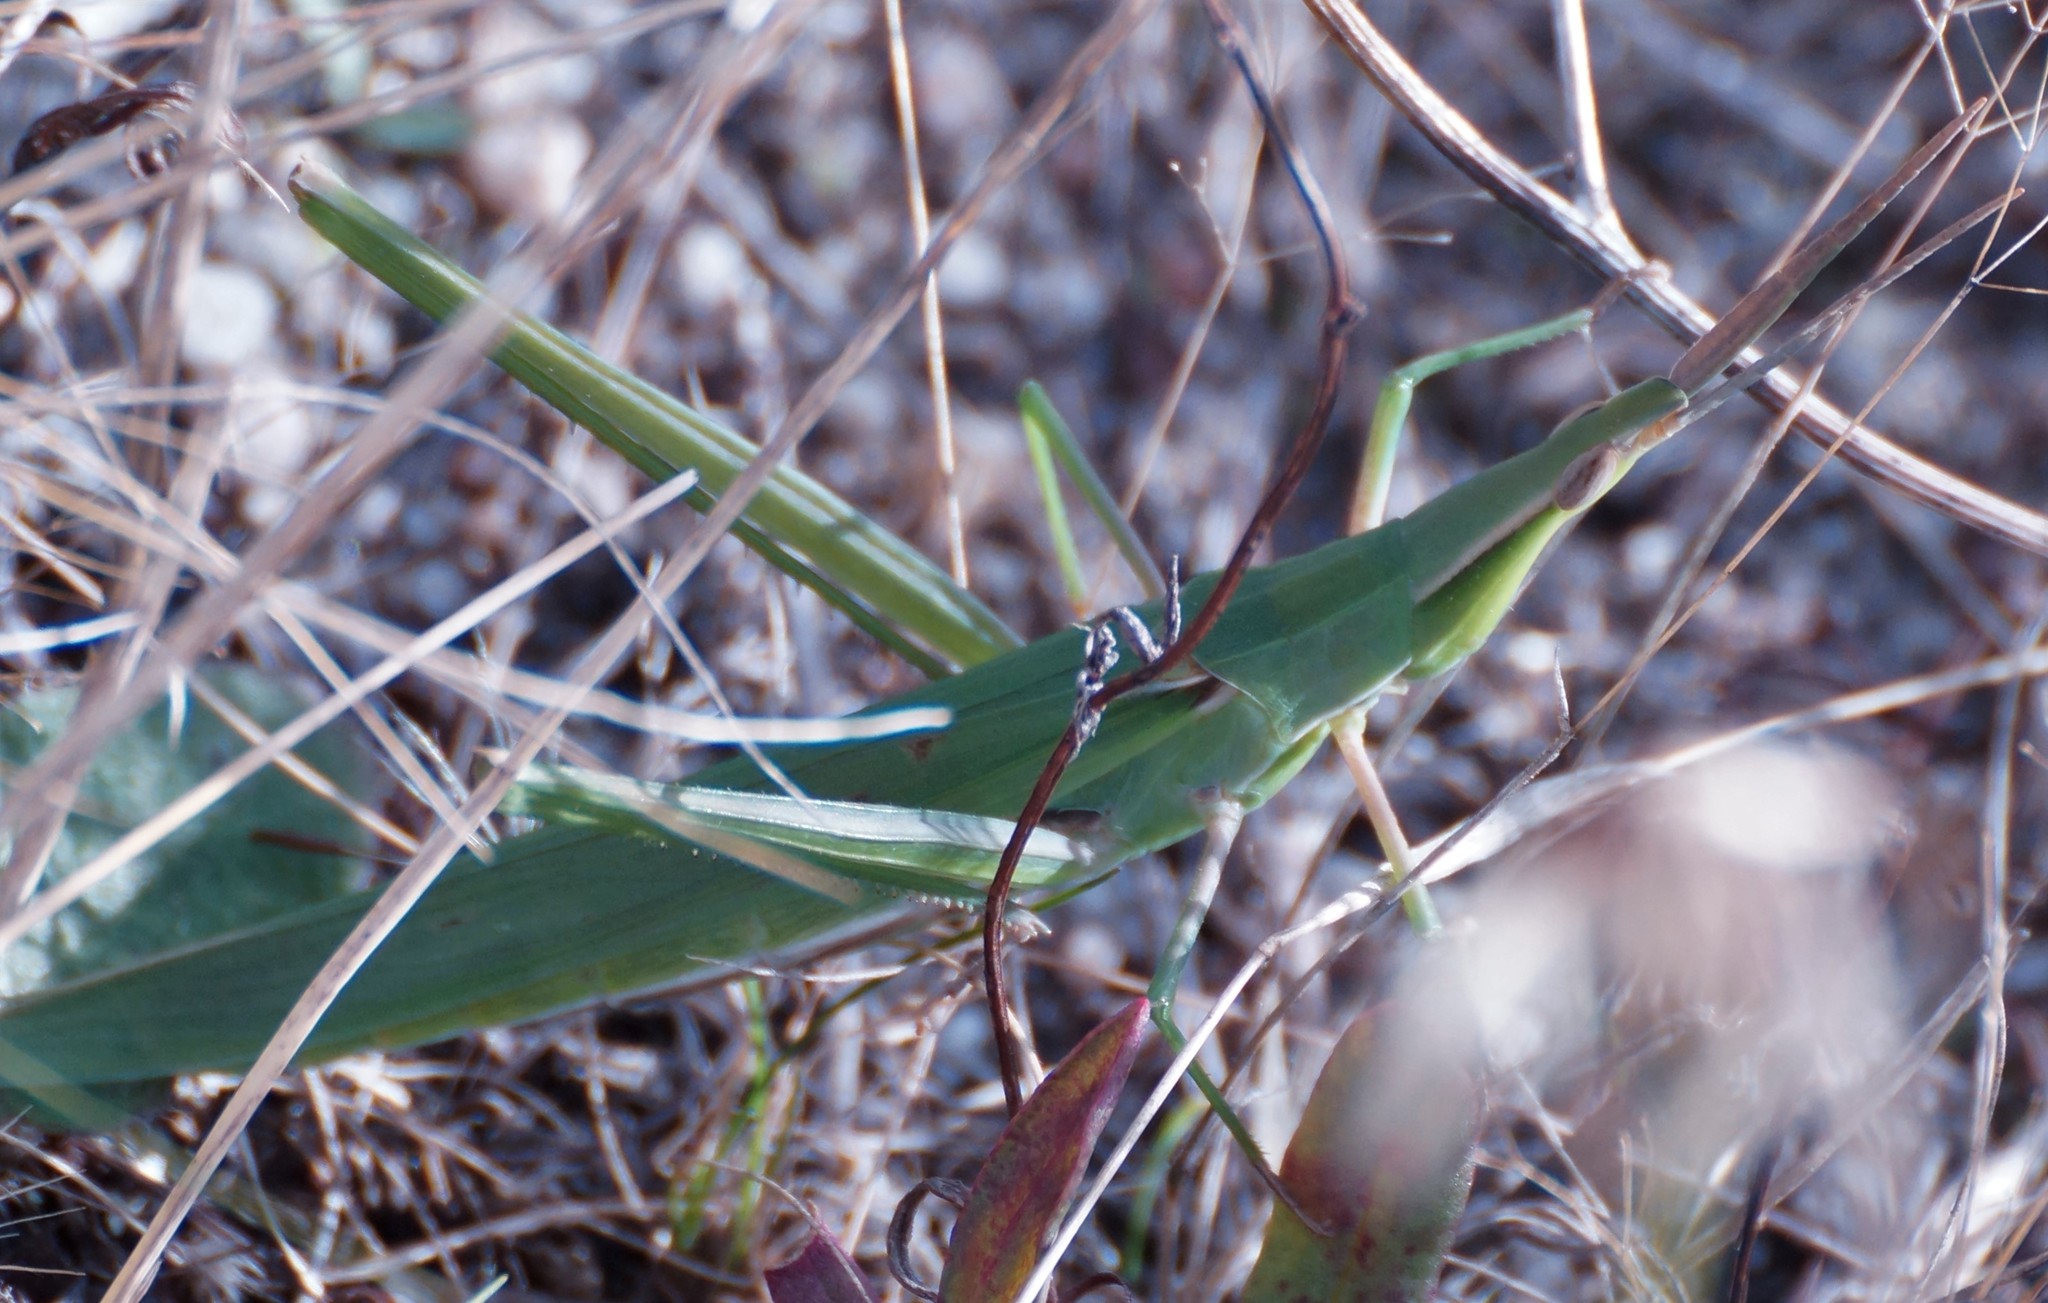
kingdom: Animalia
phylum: Arthropoda
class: Insecta
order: Orthoptera
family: Acrididae
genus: Acrida
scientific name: Acrida conica
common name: Giant green slantface
